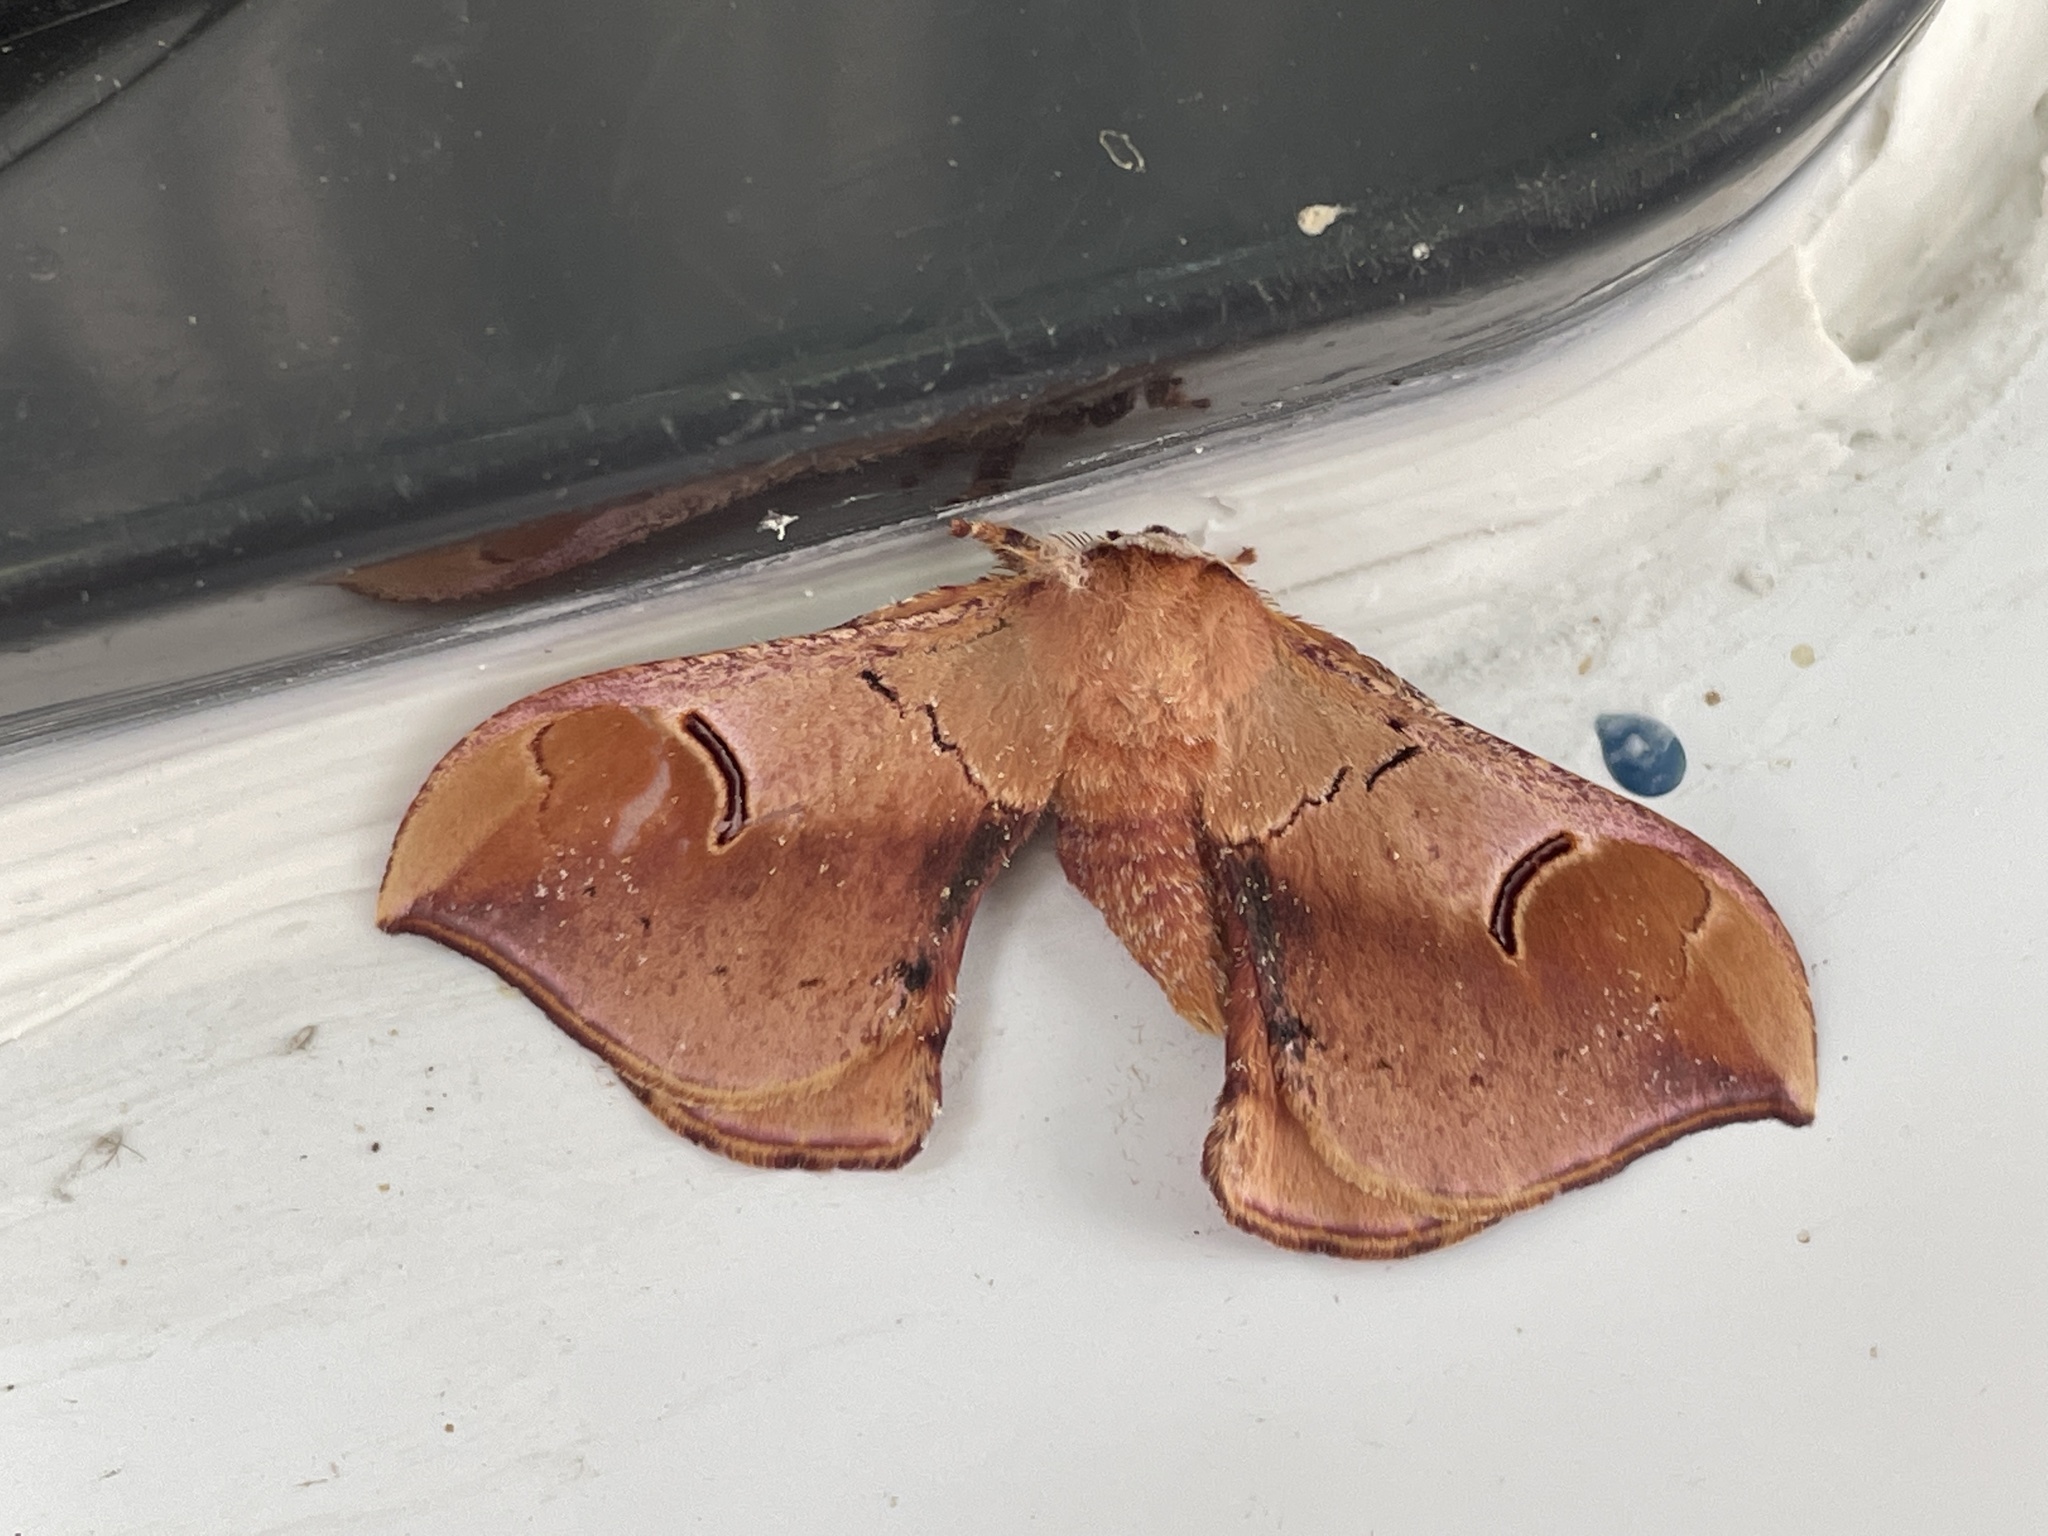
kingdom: Animalia
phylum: Arthropoda
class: Insecta
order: Lepidoptera
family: Saturniidae
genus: Goodia
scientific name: Goodia
